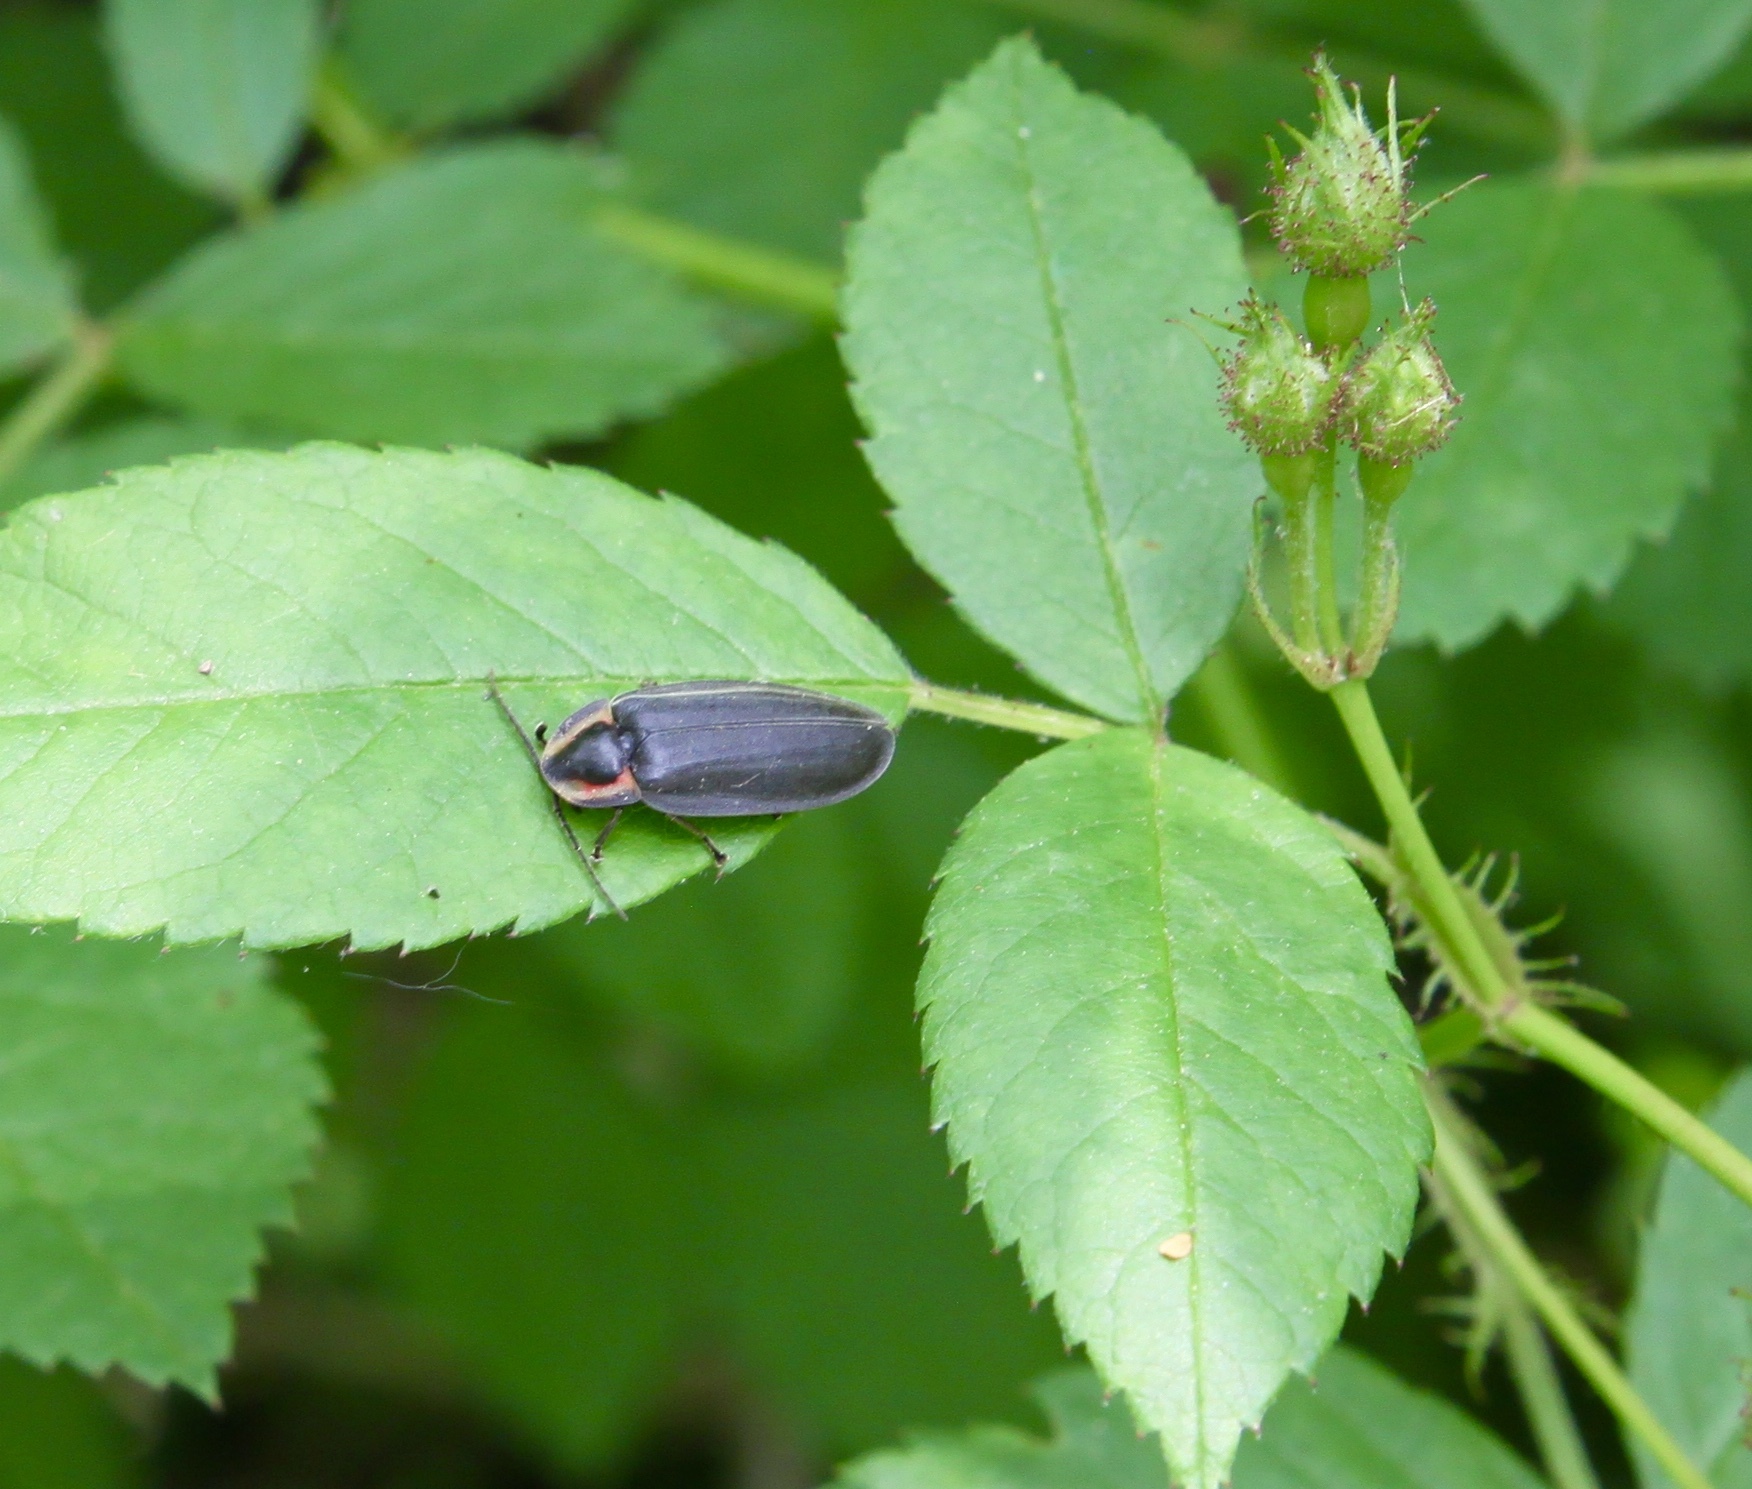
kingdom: Animalia
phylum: Arthropoda
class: Insecta
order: Coleoptera
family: Lampyridae
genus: Photinus
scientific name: Photinus corrusca
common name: Winter firefly
